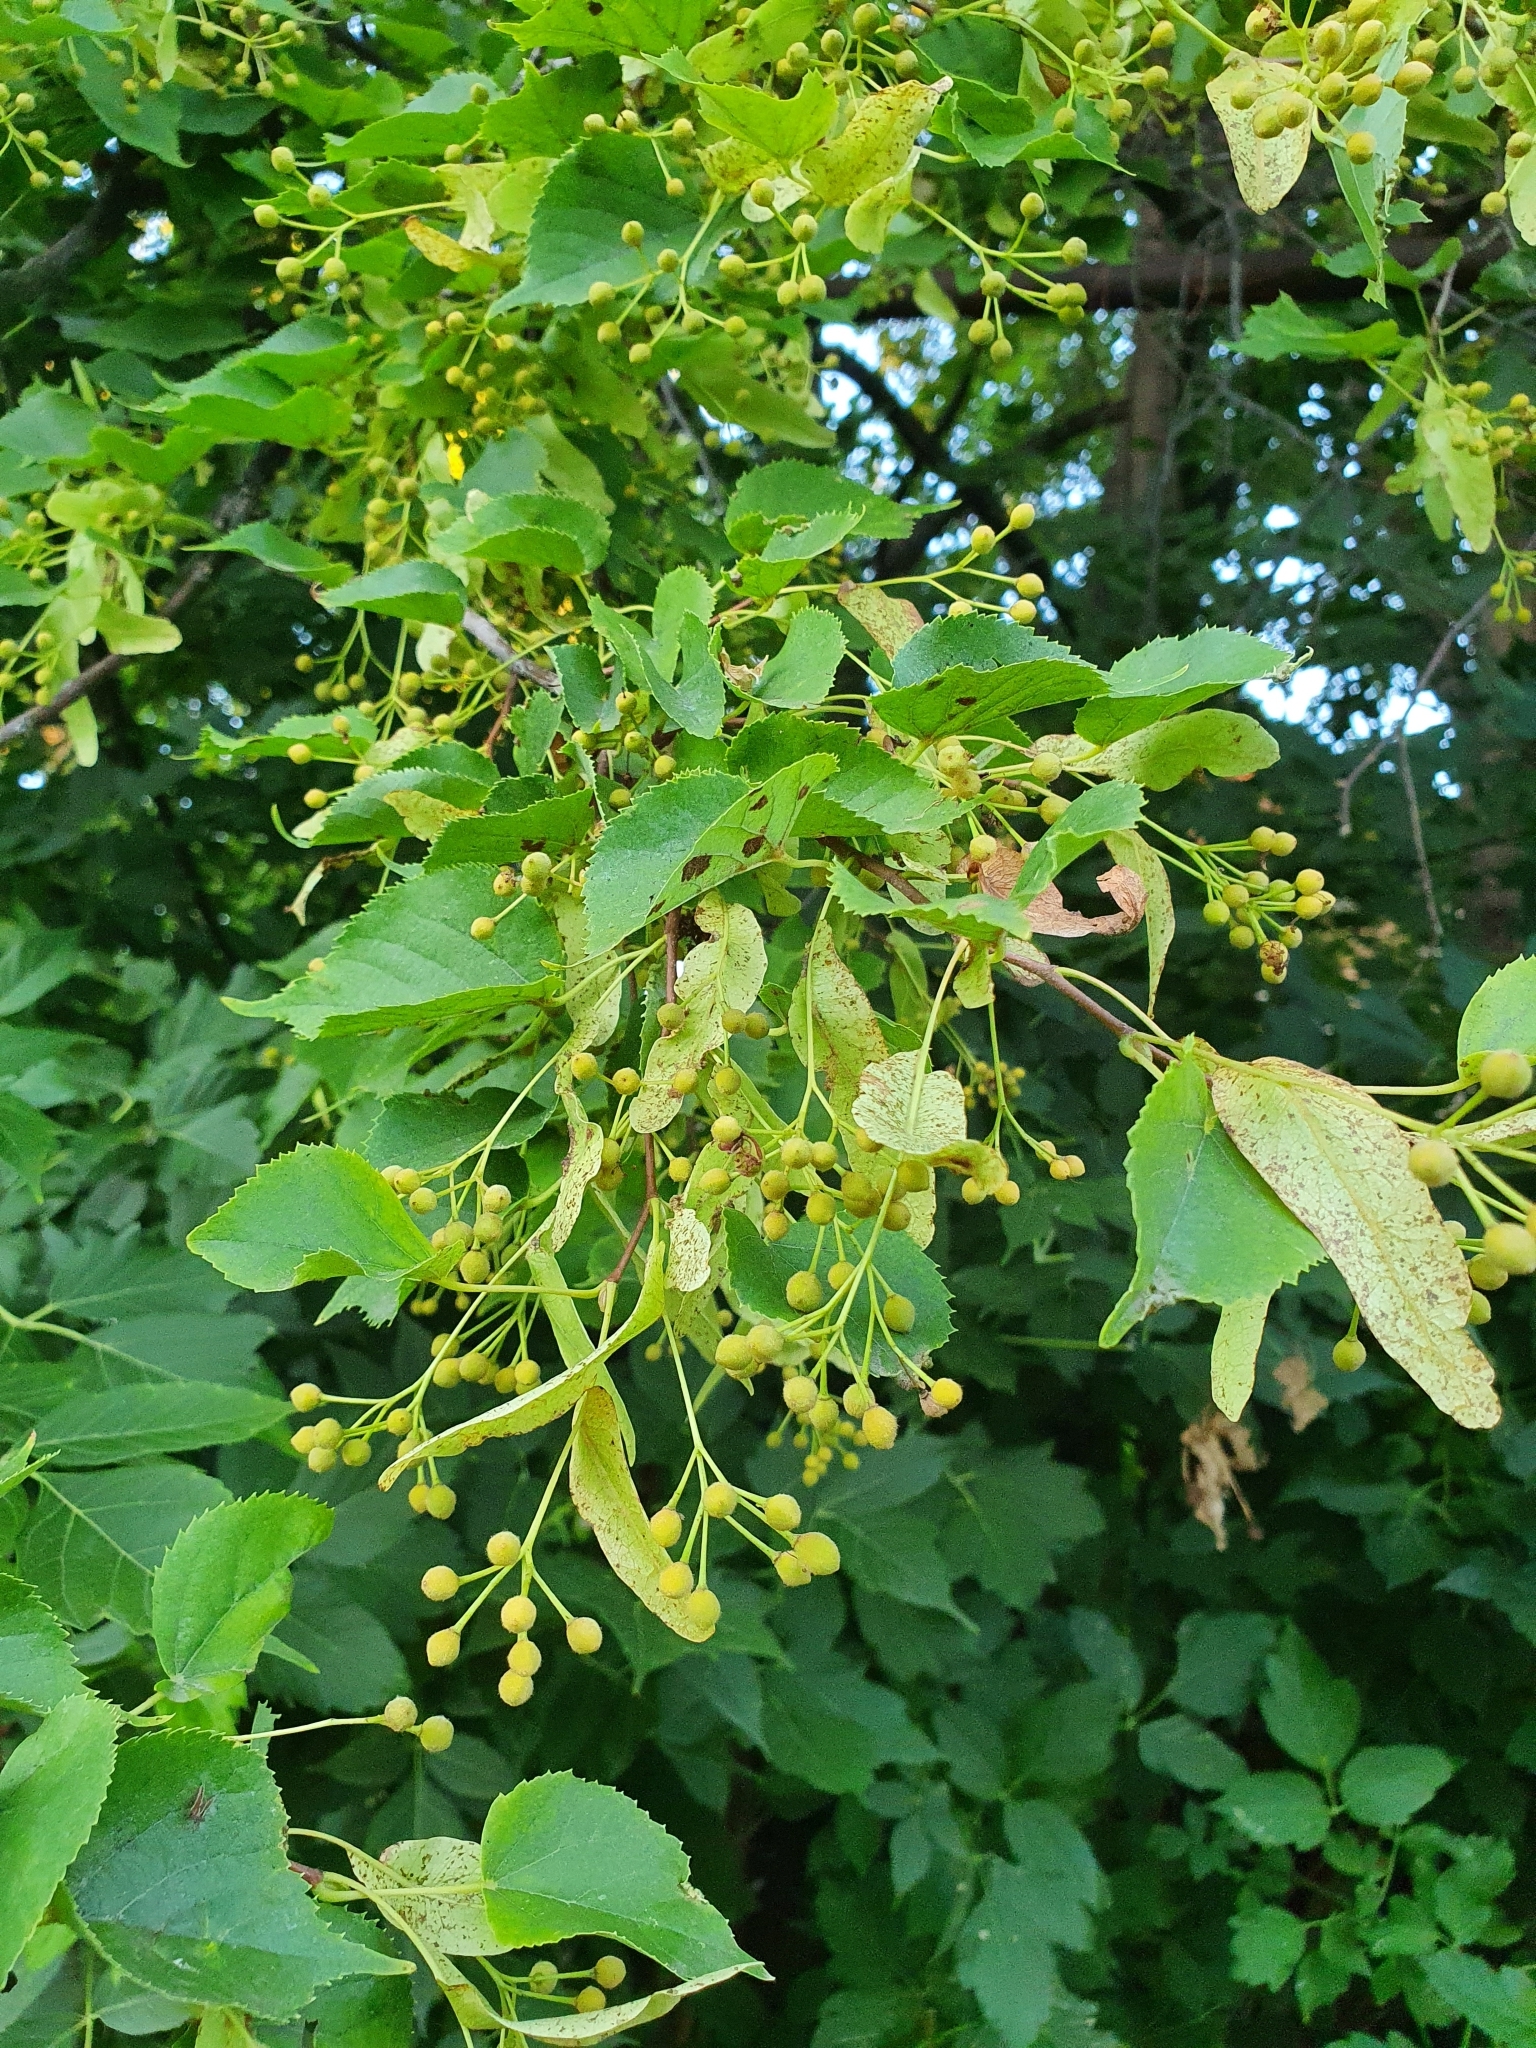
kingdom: Plantae
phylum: Tracheophyta
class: Magnoliopsida
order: Malvales
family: Malvaceae
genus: Tilia
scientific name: Tilia cordata
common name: Small-leaved lime
